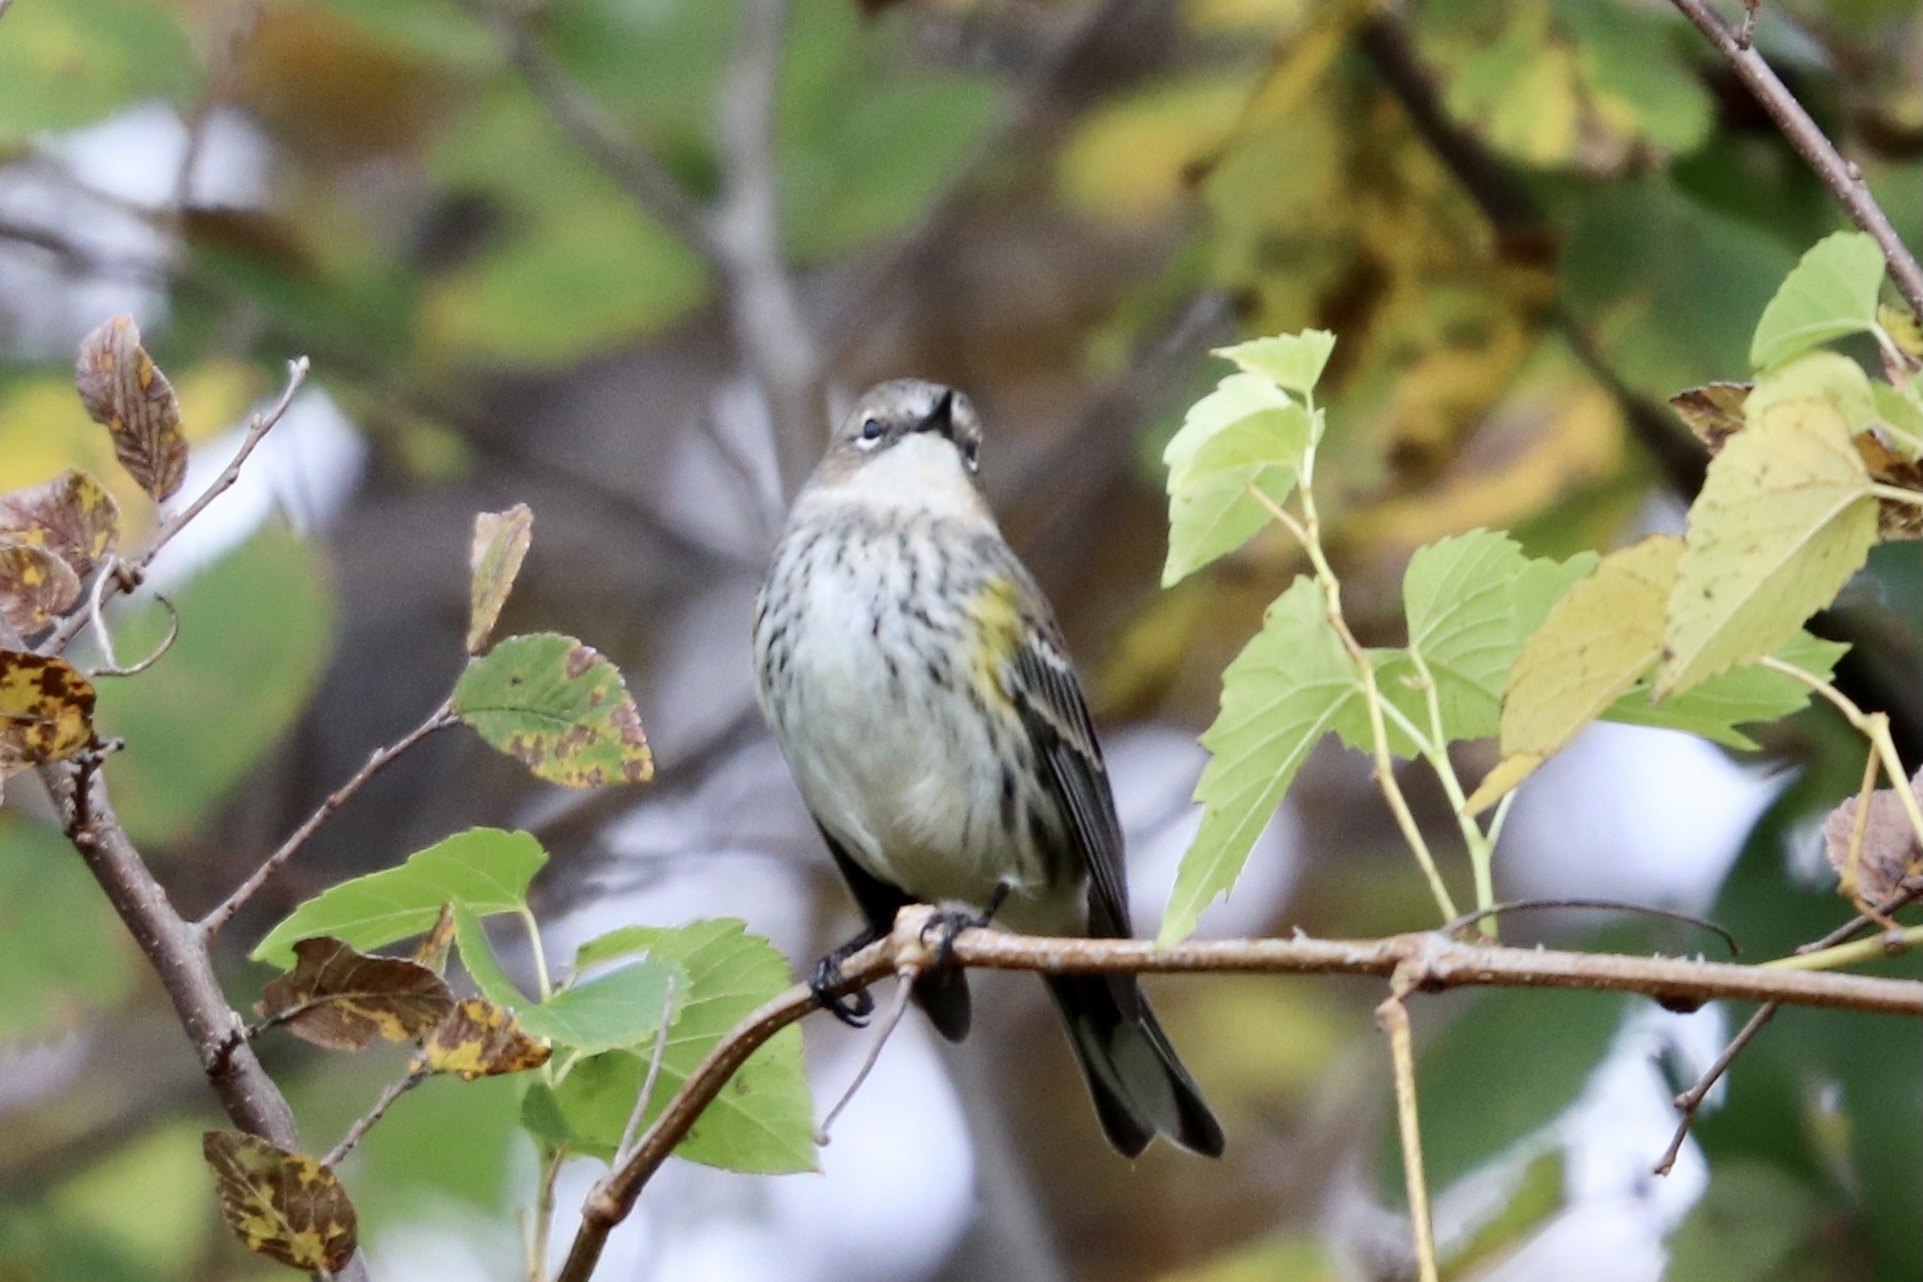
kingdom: Animalia
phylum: Chordata
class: Aves
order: Passeriformes
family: Parulidae
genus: Setophaga
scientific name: Setophaga coronata
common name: Myrtle warbler
